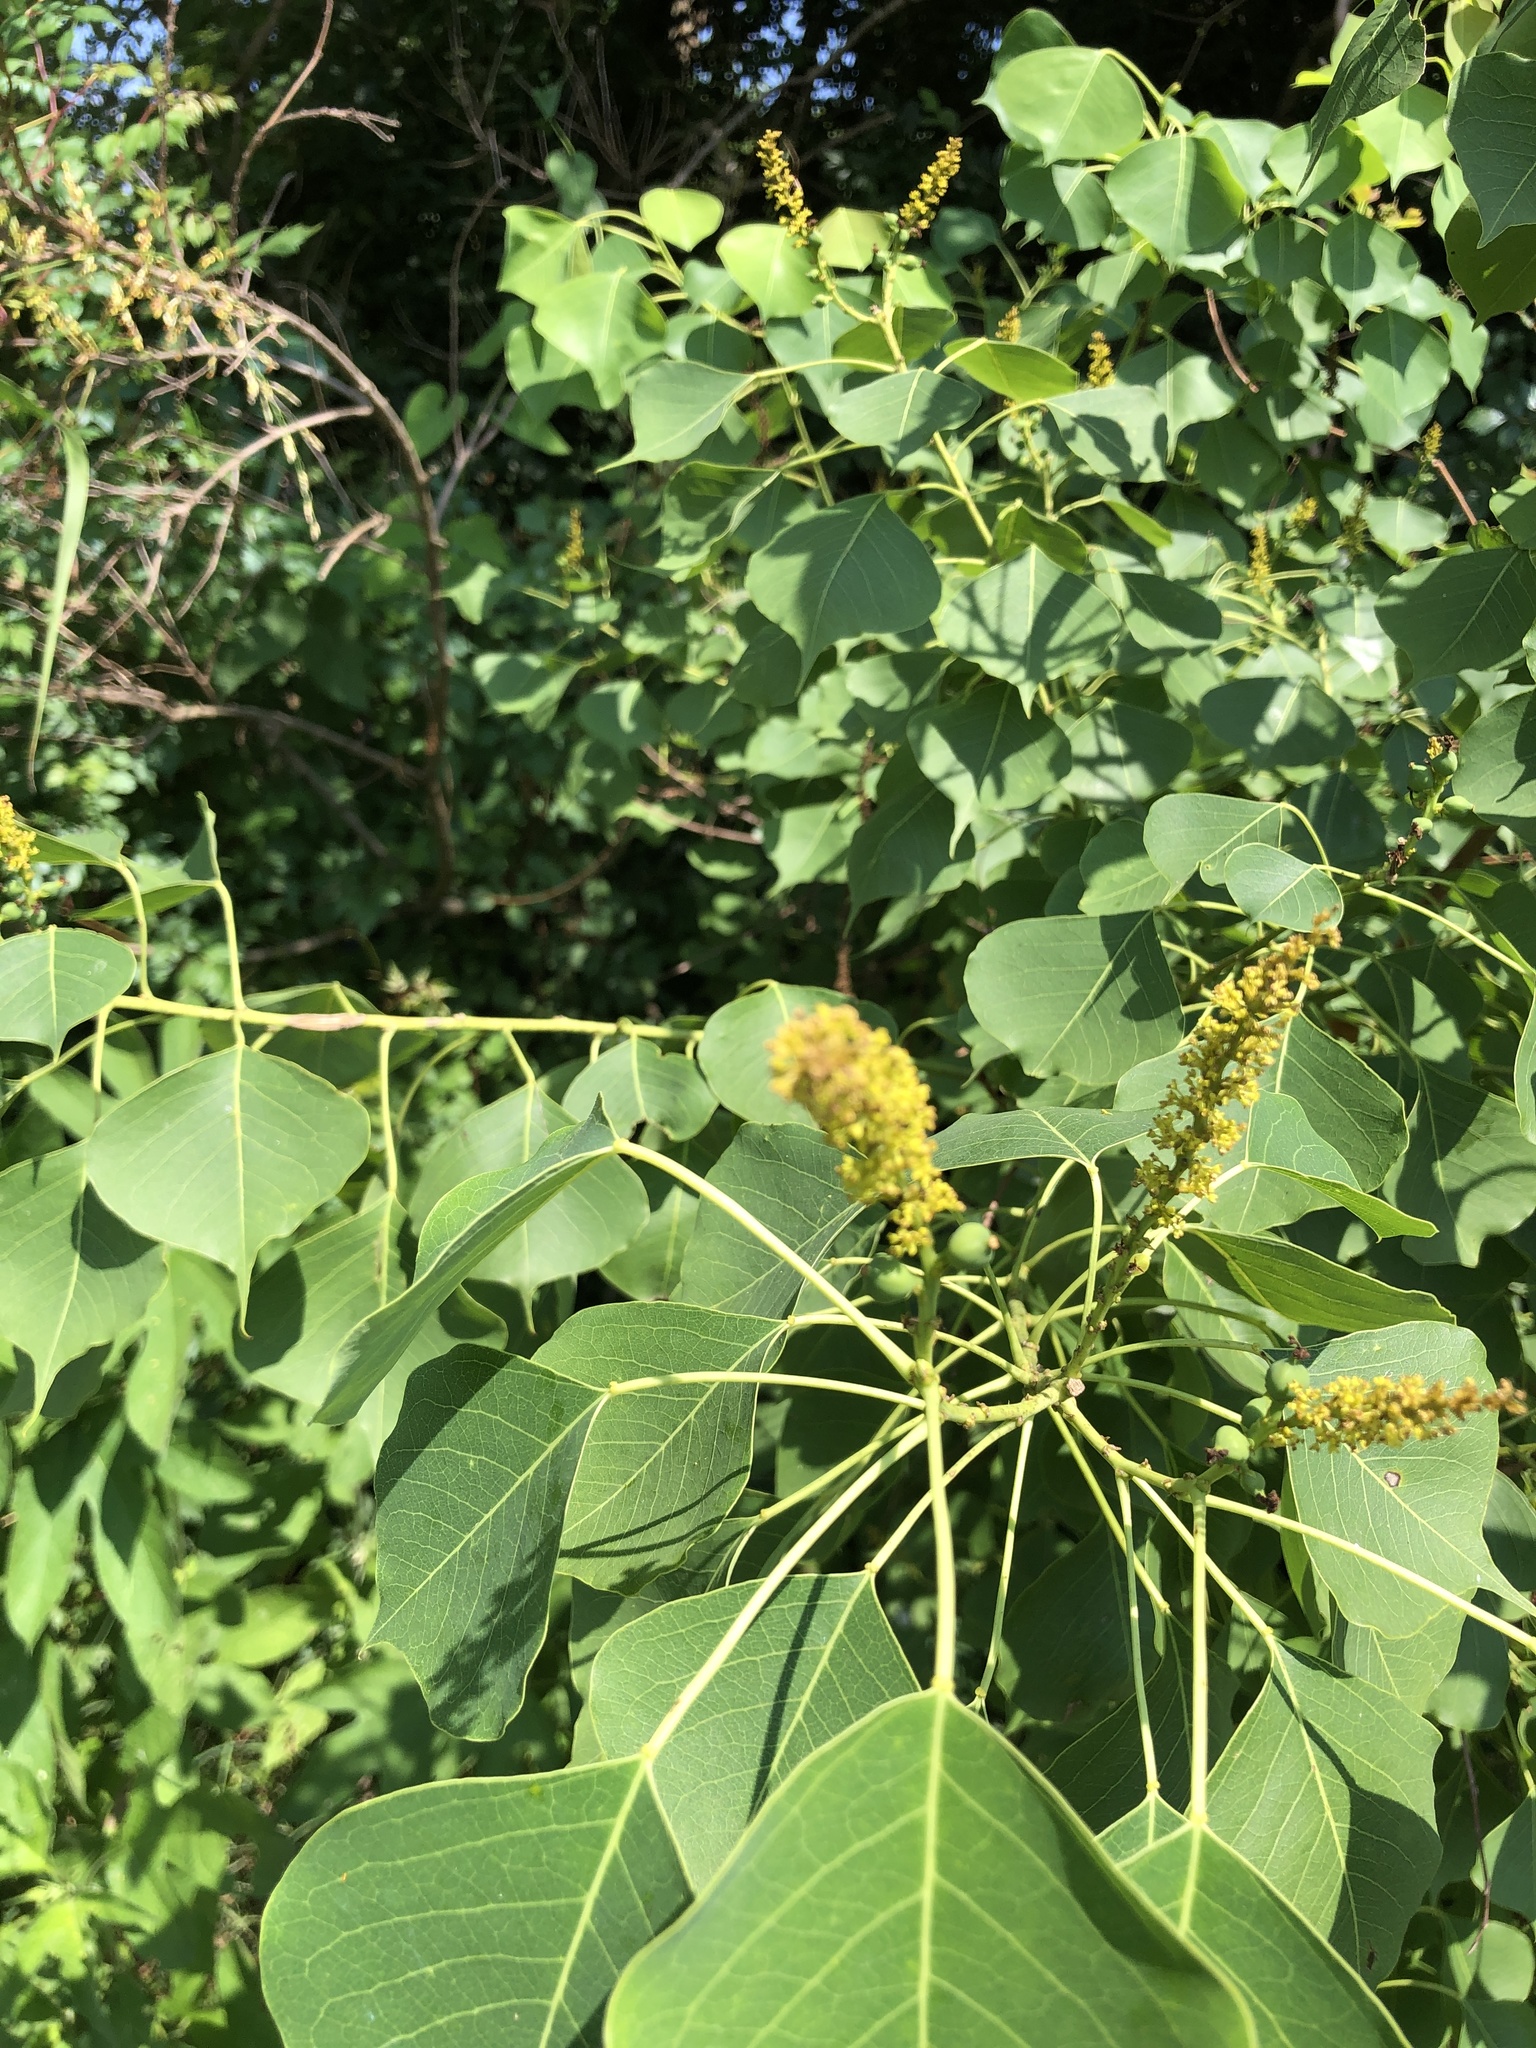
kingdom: Plantae
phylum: Tracheophyta
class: Magnoliopsida
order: Malpighiales
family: Euphorbiaceae
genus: Triadica
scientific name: Triadica sebifera
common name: Chinese tallow
